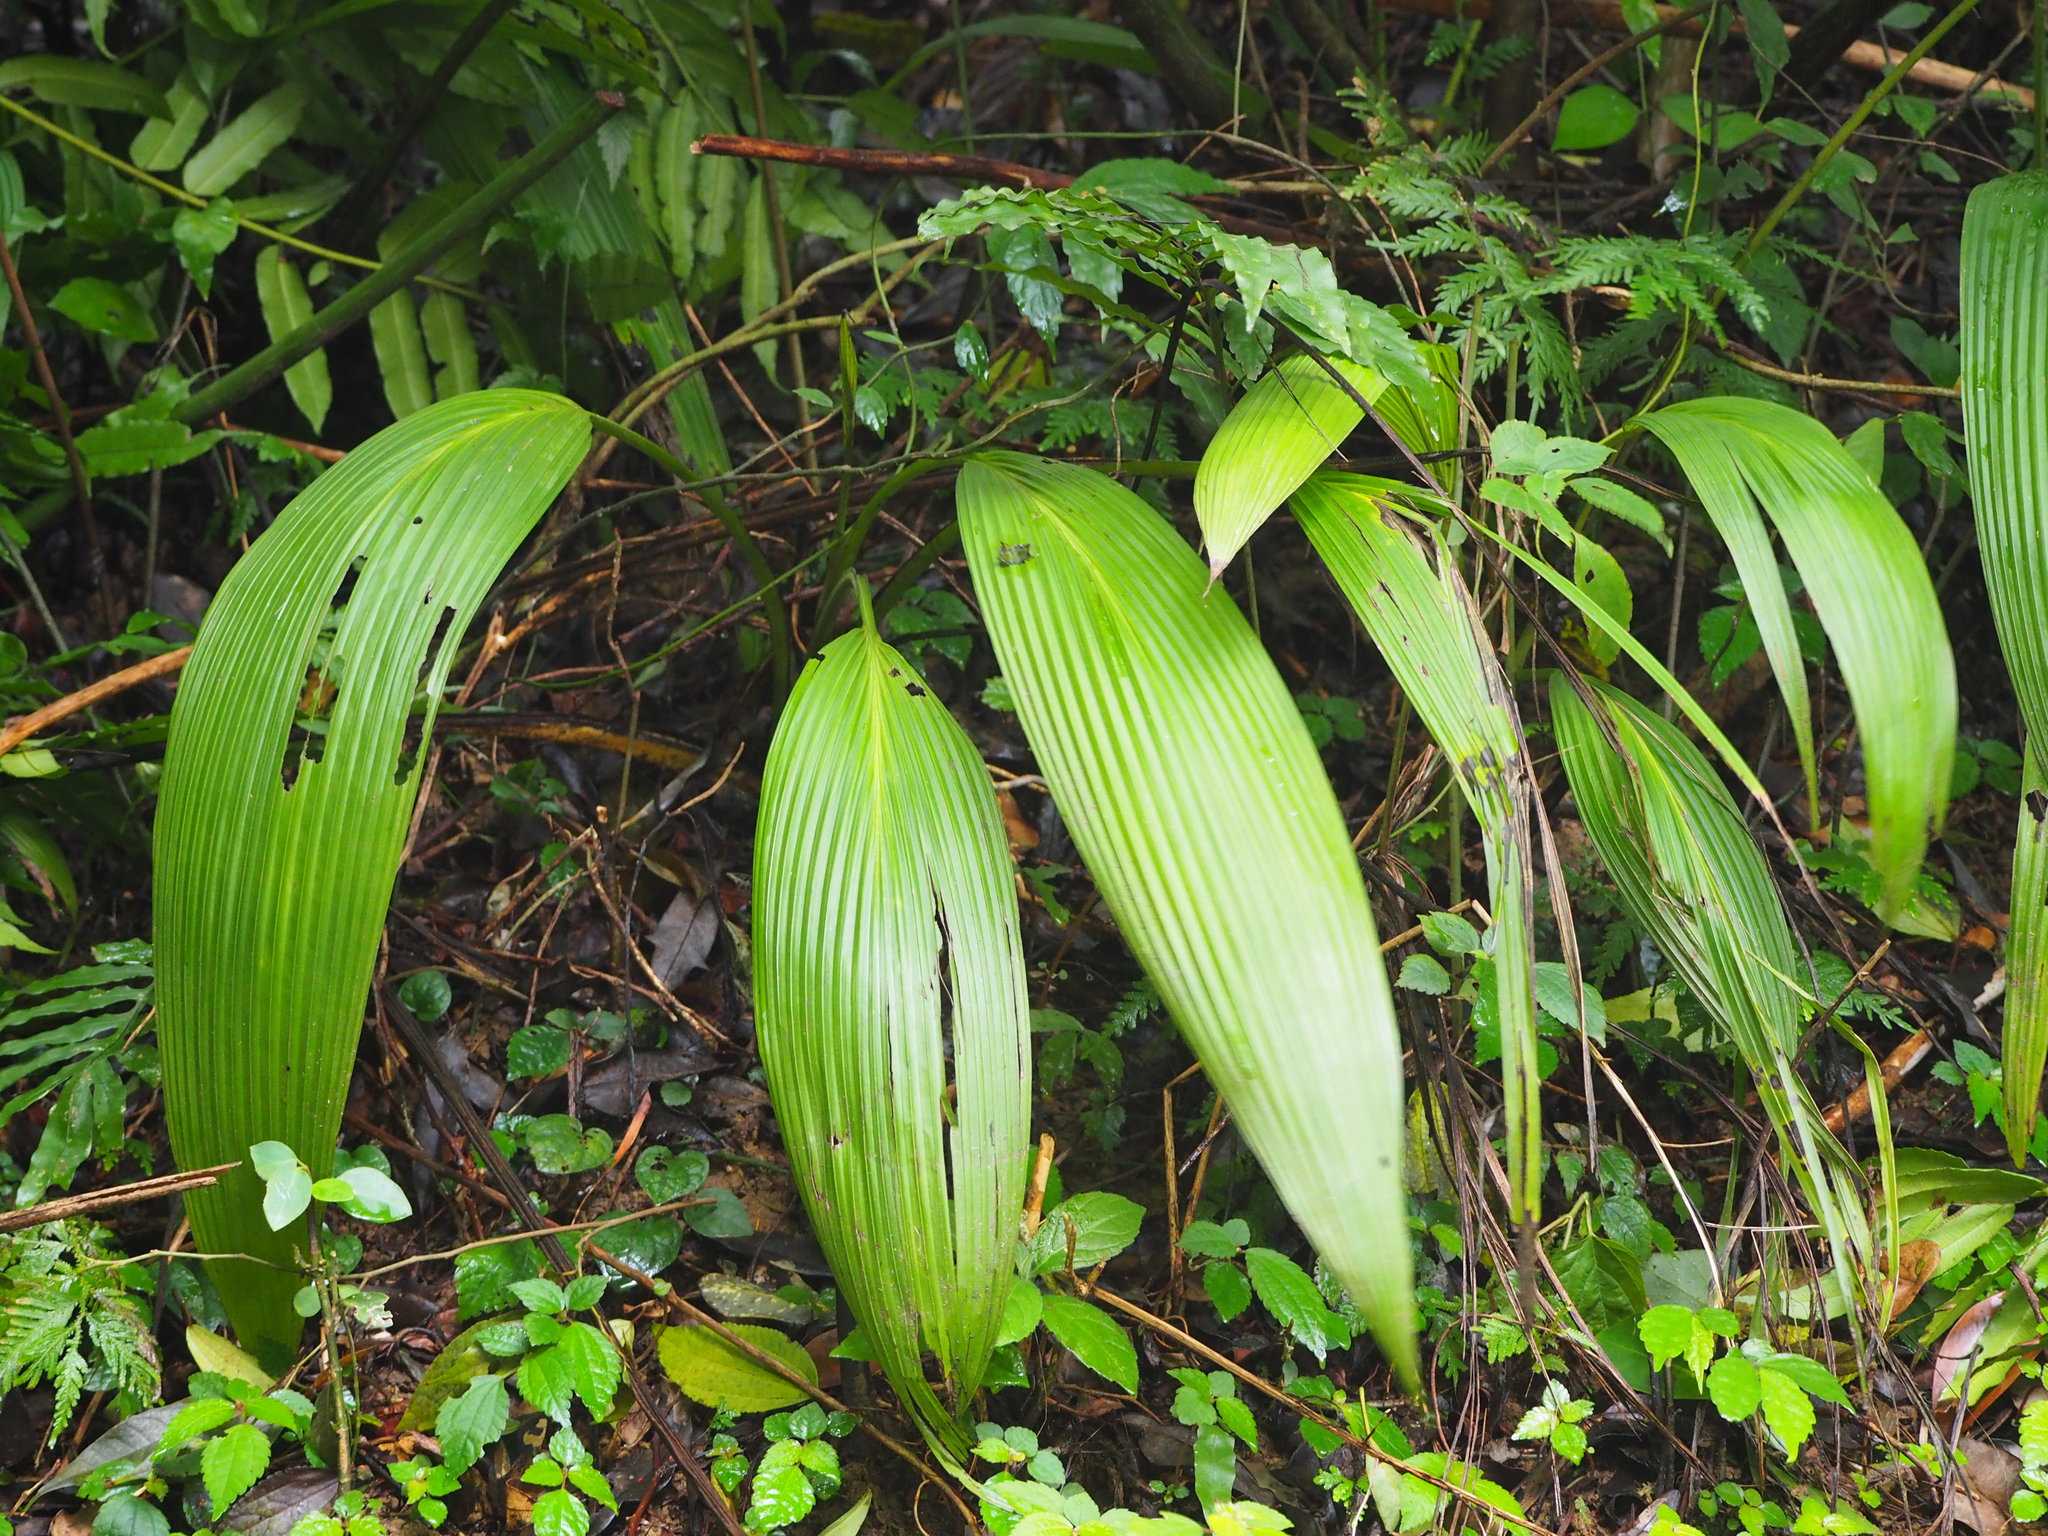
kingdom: Plantae
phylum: Tracheophyta
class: Liliopsida
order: Asparagales
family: Hypoxidaceae
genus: Curculigo
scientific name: Curculigo capitulata
